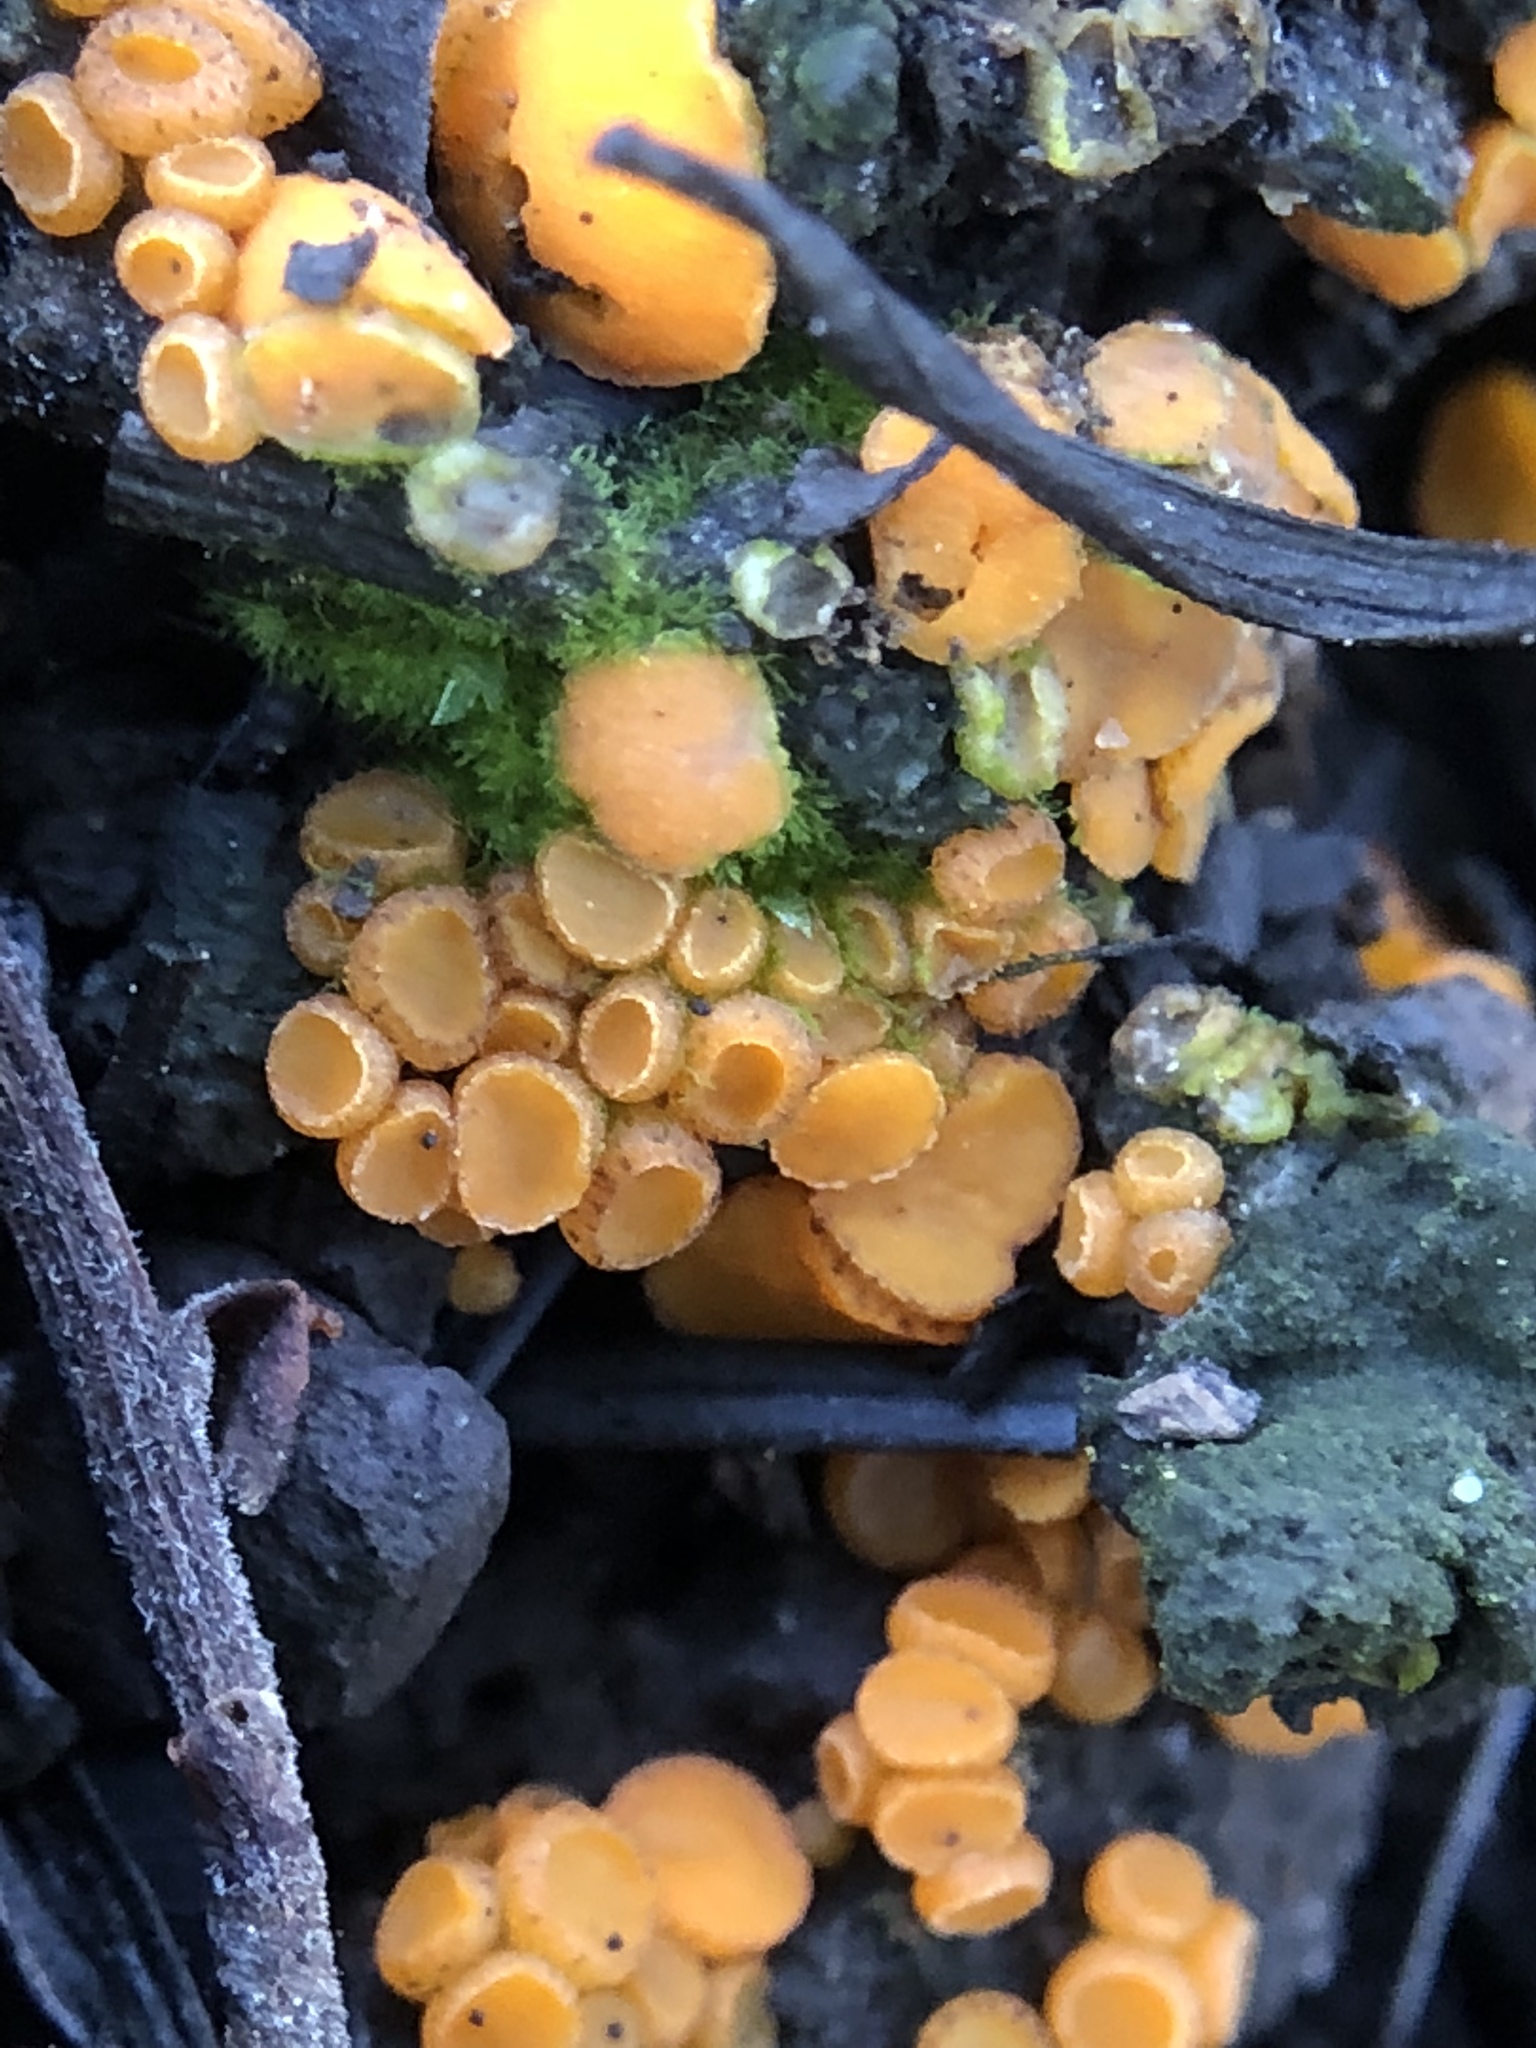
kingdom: Fungi
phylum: Ascomycota
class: Pezizomycetes
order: Pezizales
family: Pyronemataceae
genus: Anthracobia
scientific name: Anthracobia melaloma
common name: Charcoal eyelash
